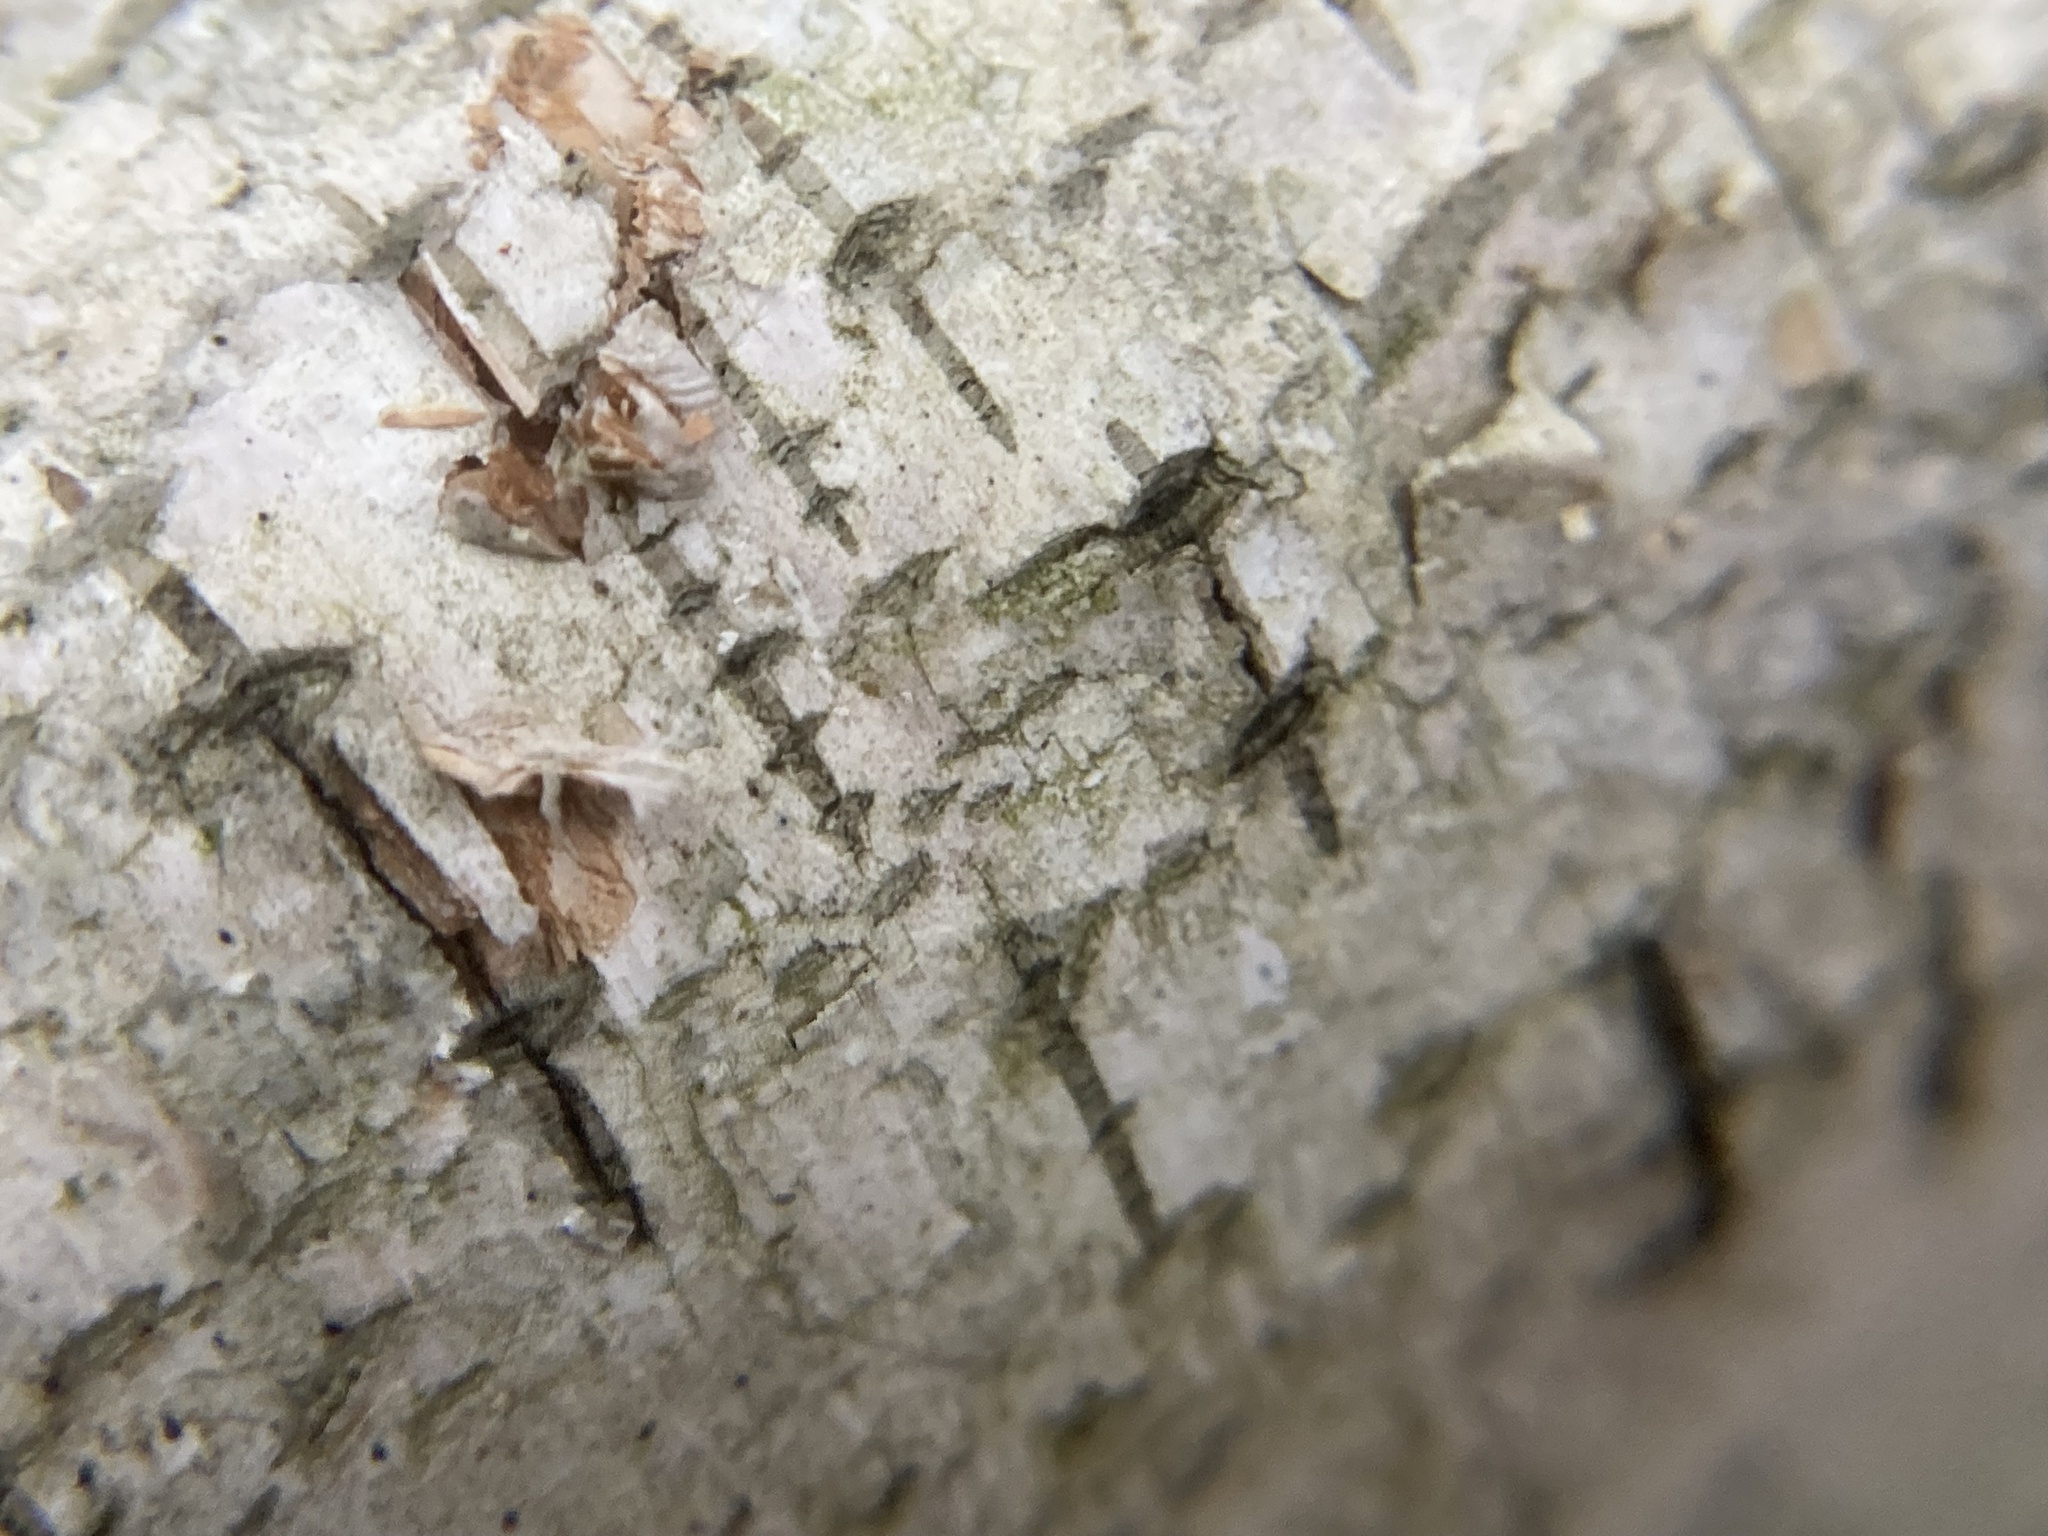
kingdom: Plantae
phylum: Tracheophyta
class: Magnoliopsida
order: Fagales
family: Betulaceae
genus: Betula
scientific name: Betula
